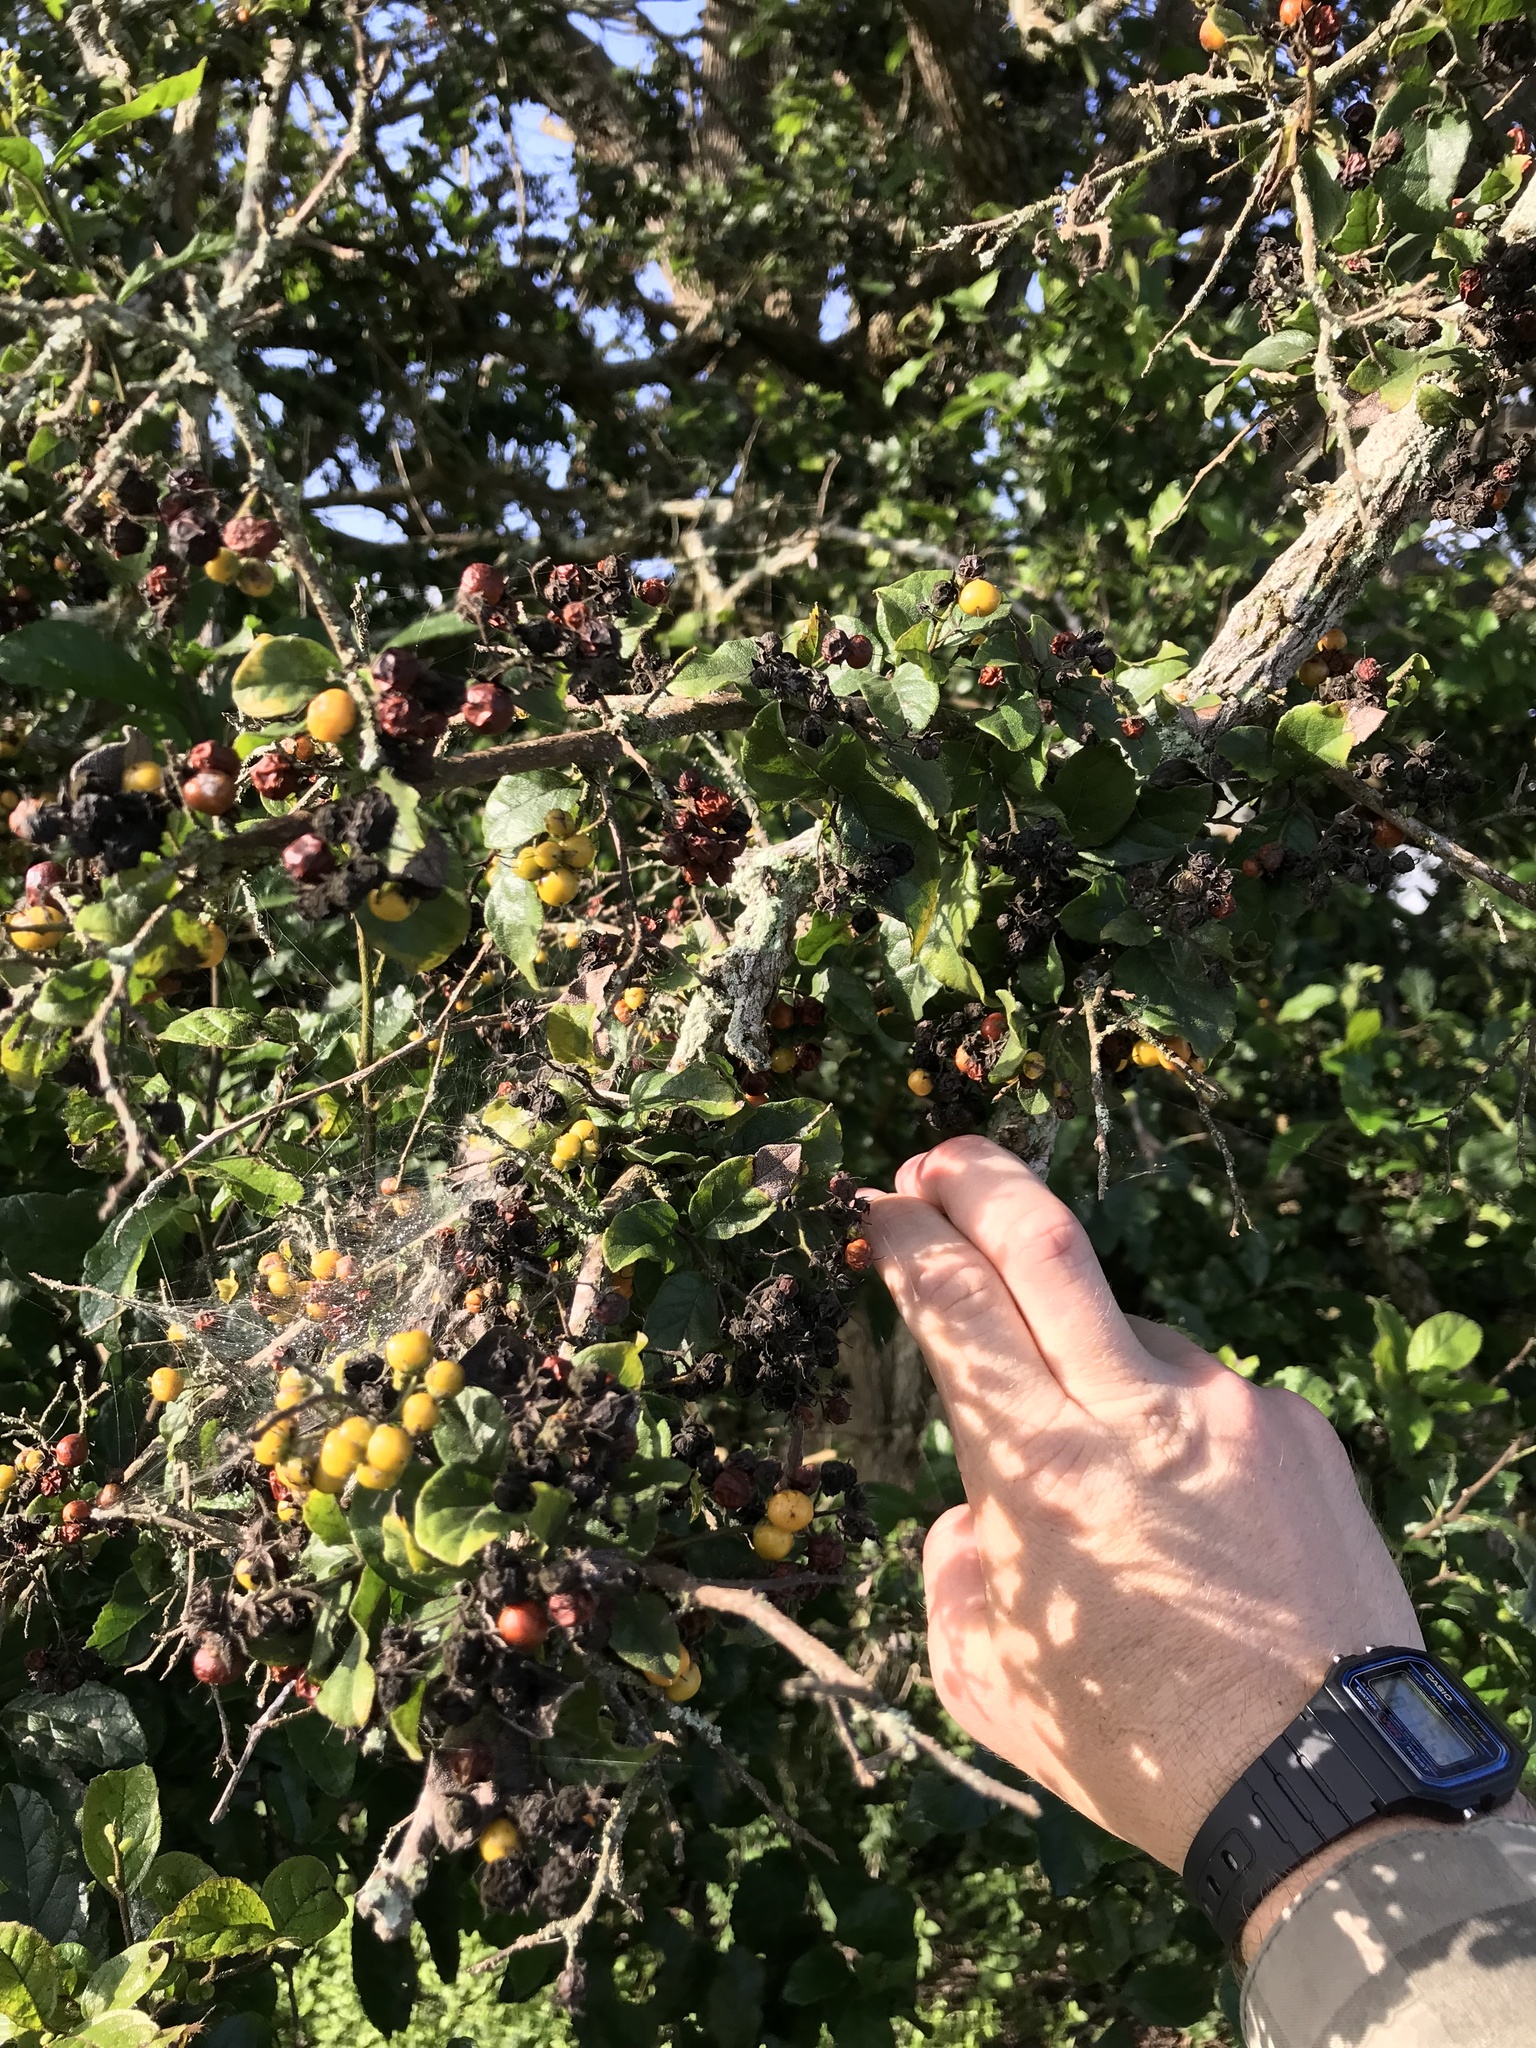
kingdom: Plantae
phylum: Tracheophyta
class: Magnoliopsida
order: Boraginales
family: Ehretiaceae
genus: Ehretia
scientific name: Ehretia anacua
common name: Sugarberry
